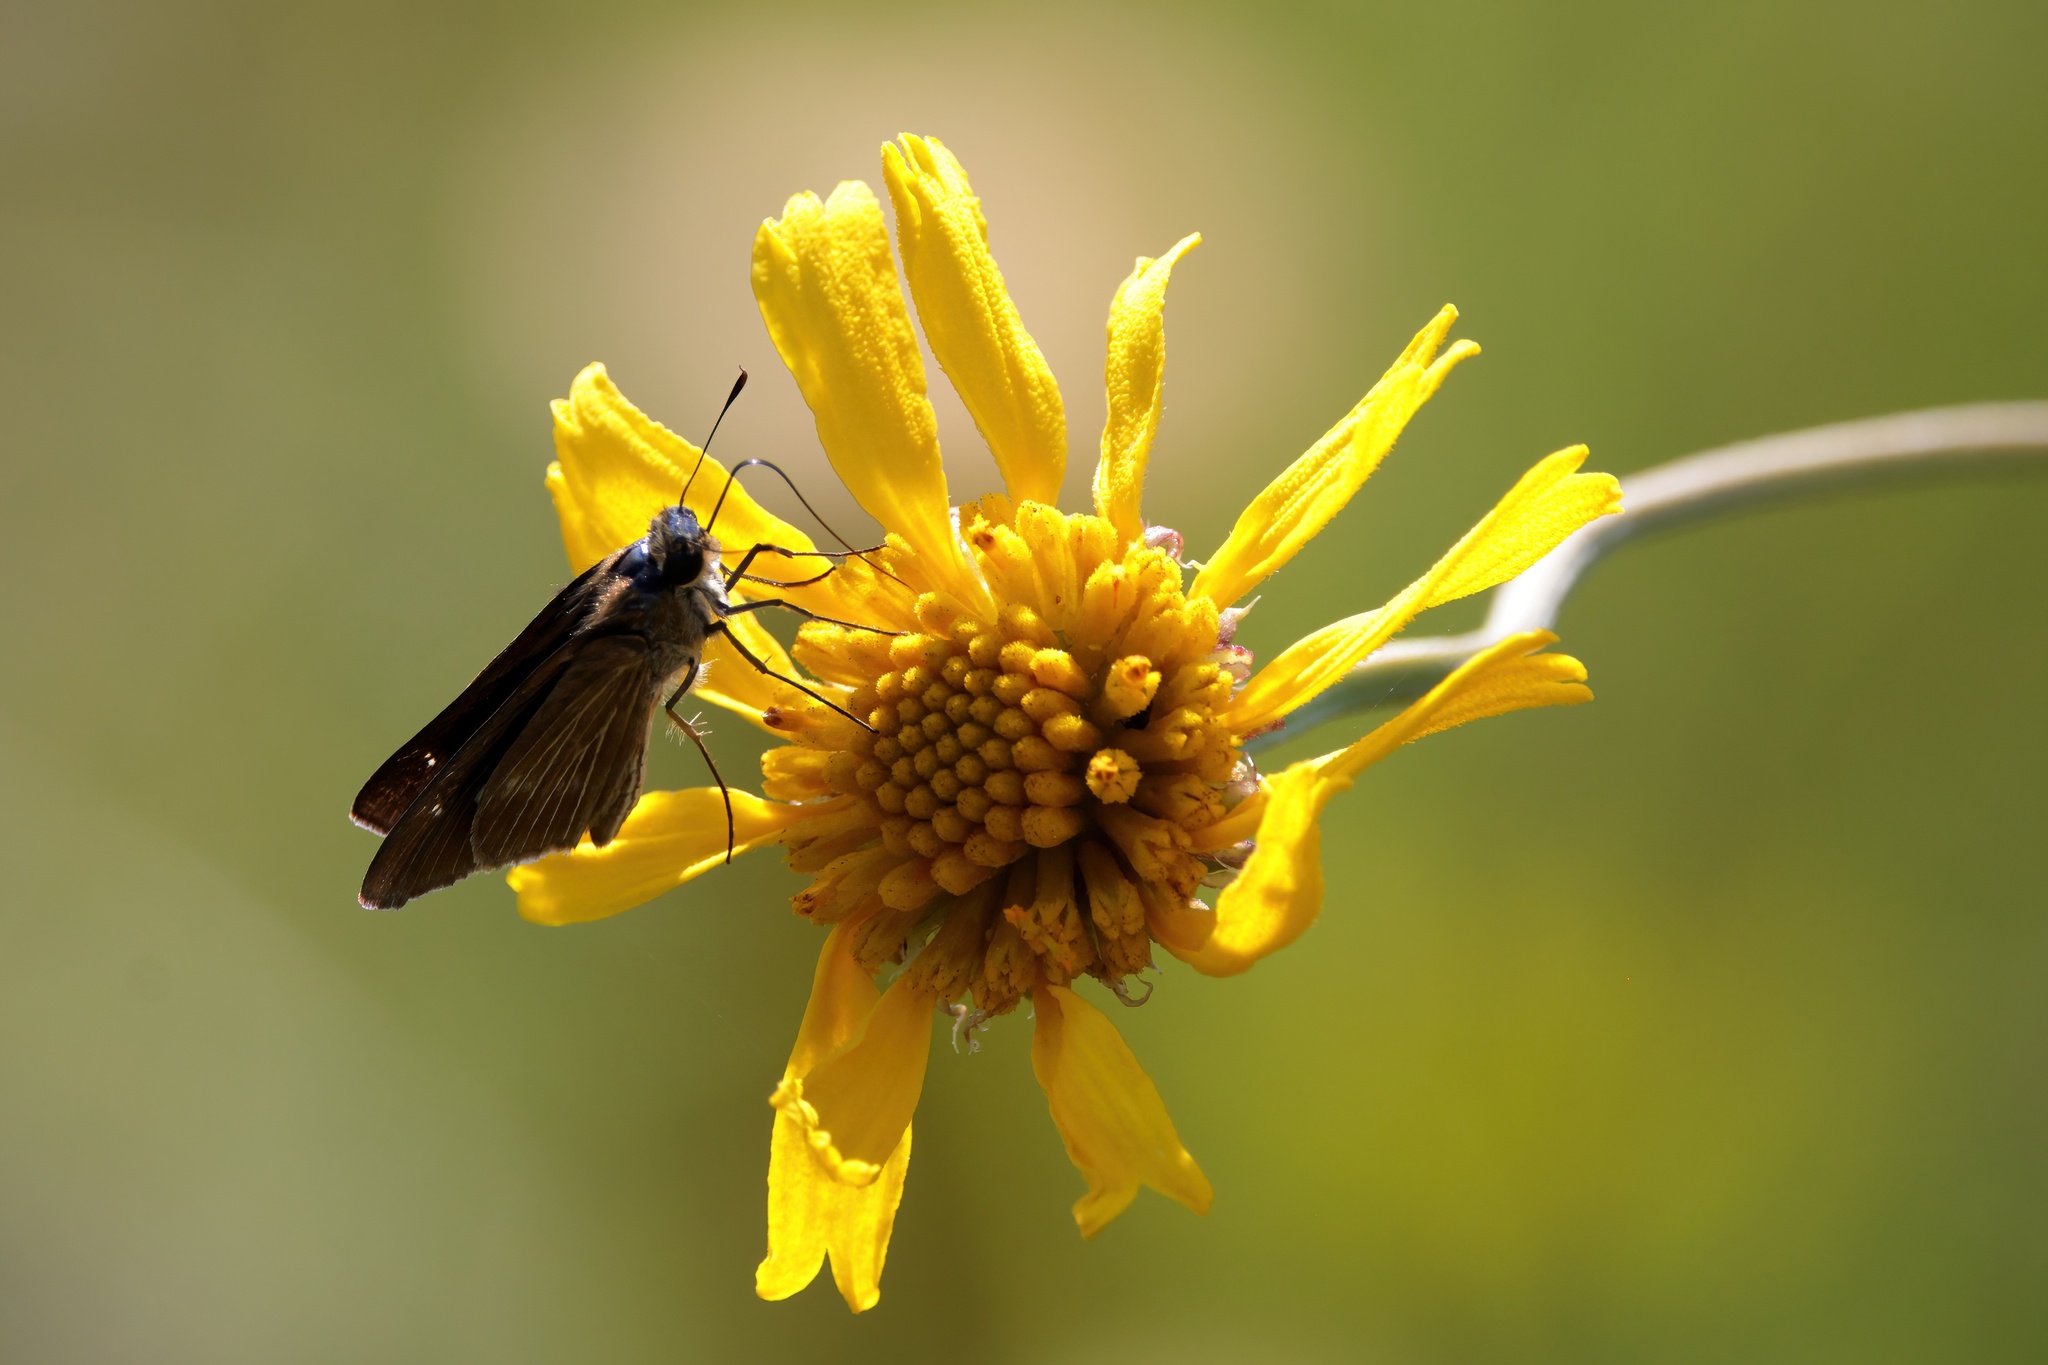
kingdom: Animalia
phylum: Arthropoda
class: Insecta
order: Lepidoptera
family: Hesperiidae
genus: Panoquina
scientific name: Panoquina ocola
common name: Ocola skipper
